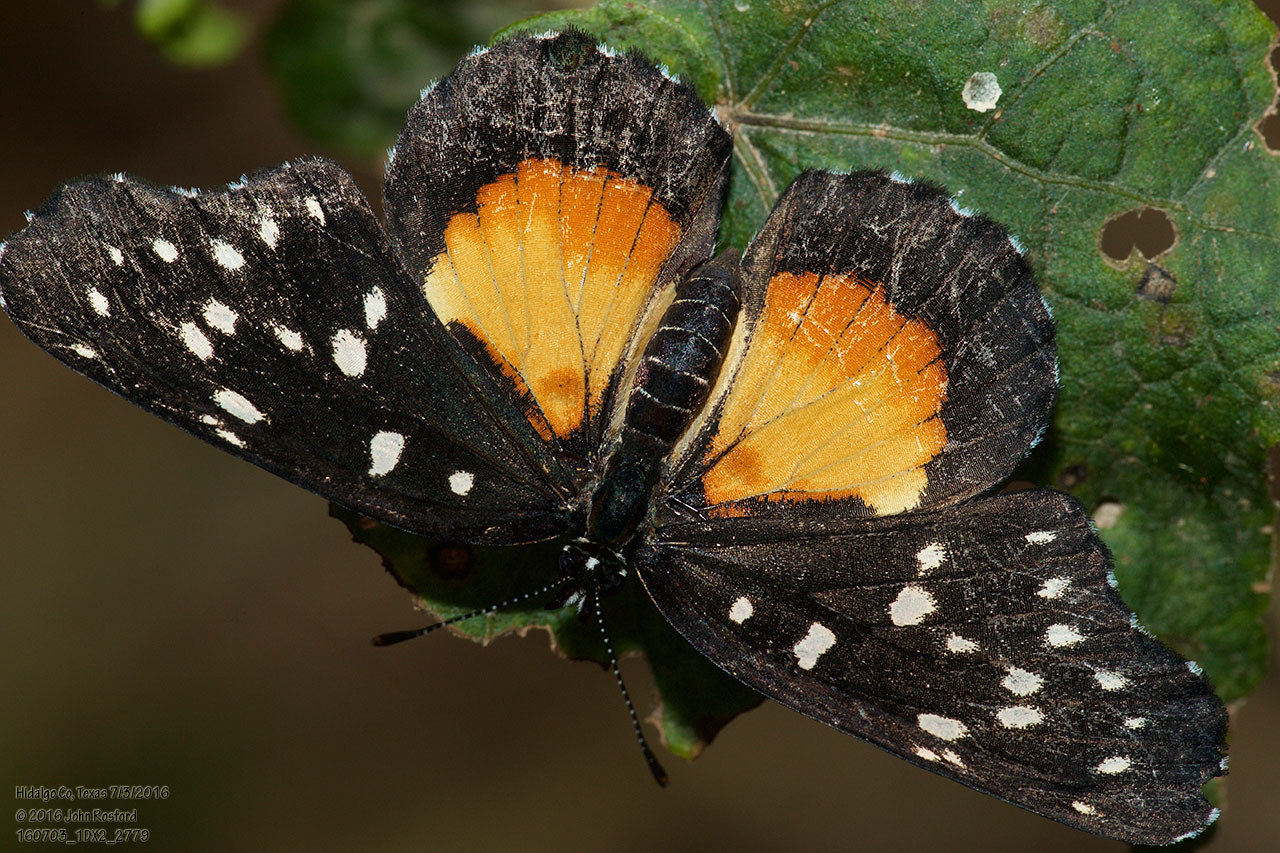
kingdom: Animalia
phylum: Arthropoda
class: Insecta
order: Lepidoptera
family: Nymphalidae
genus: Chlosyne
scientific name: Chlosyne rosita
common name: Rosita patch
